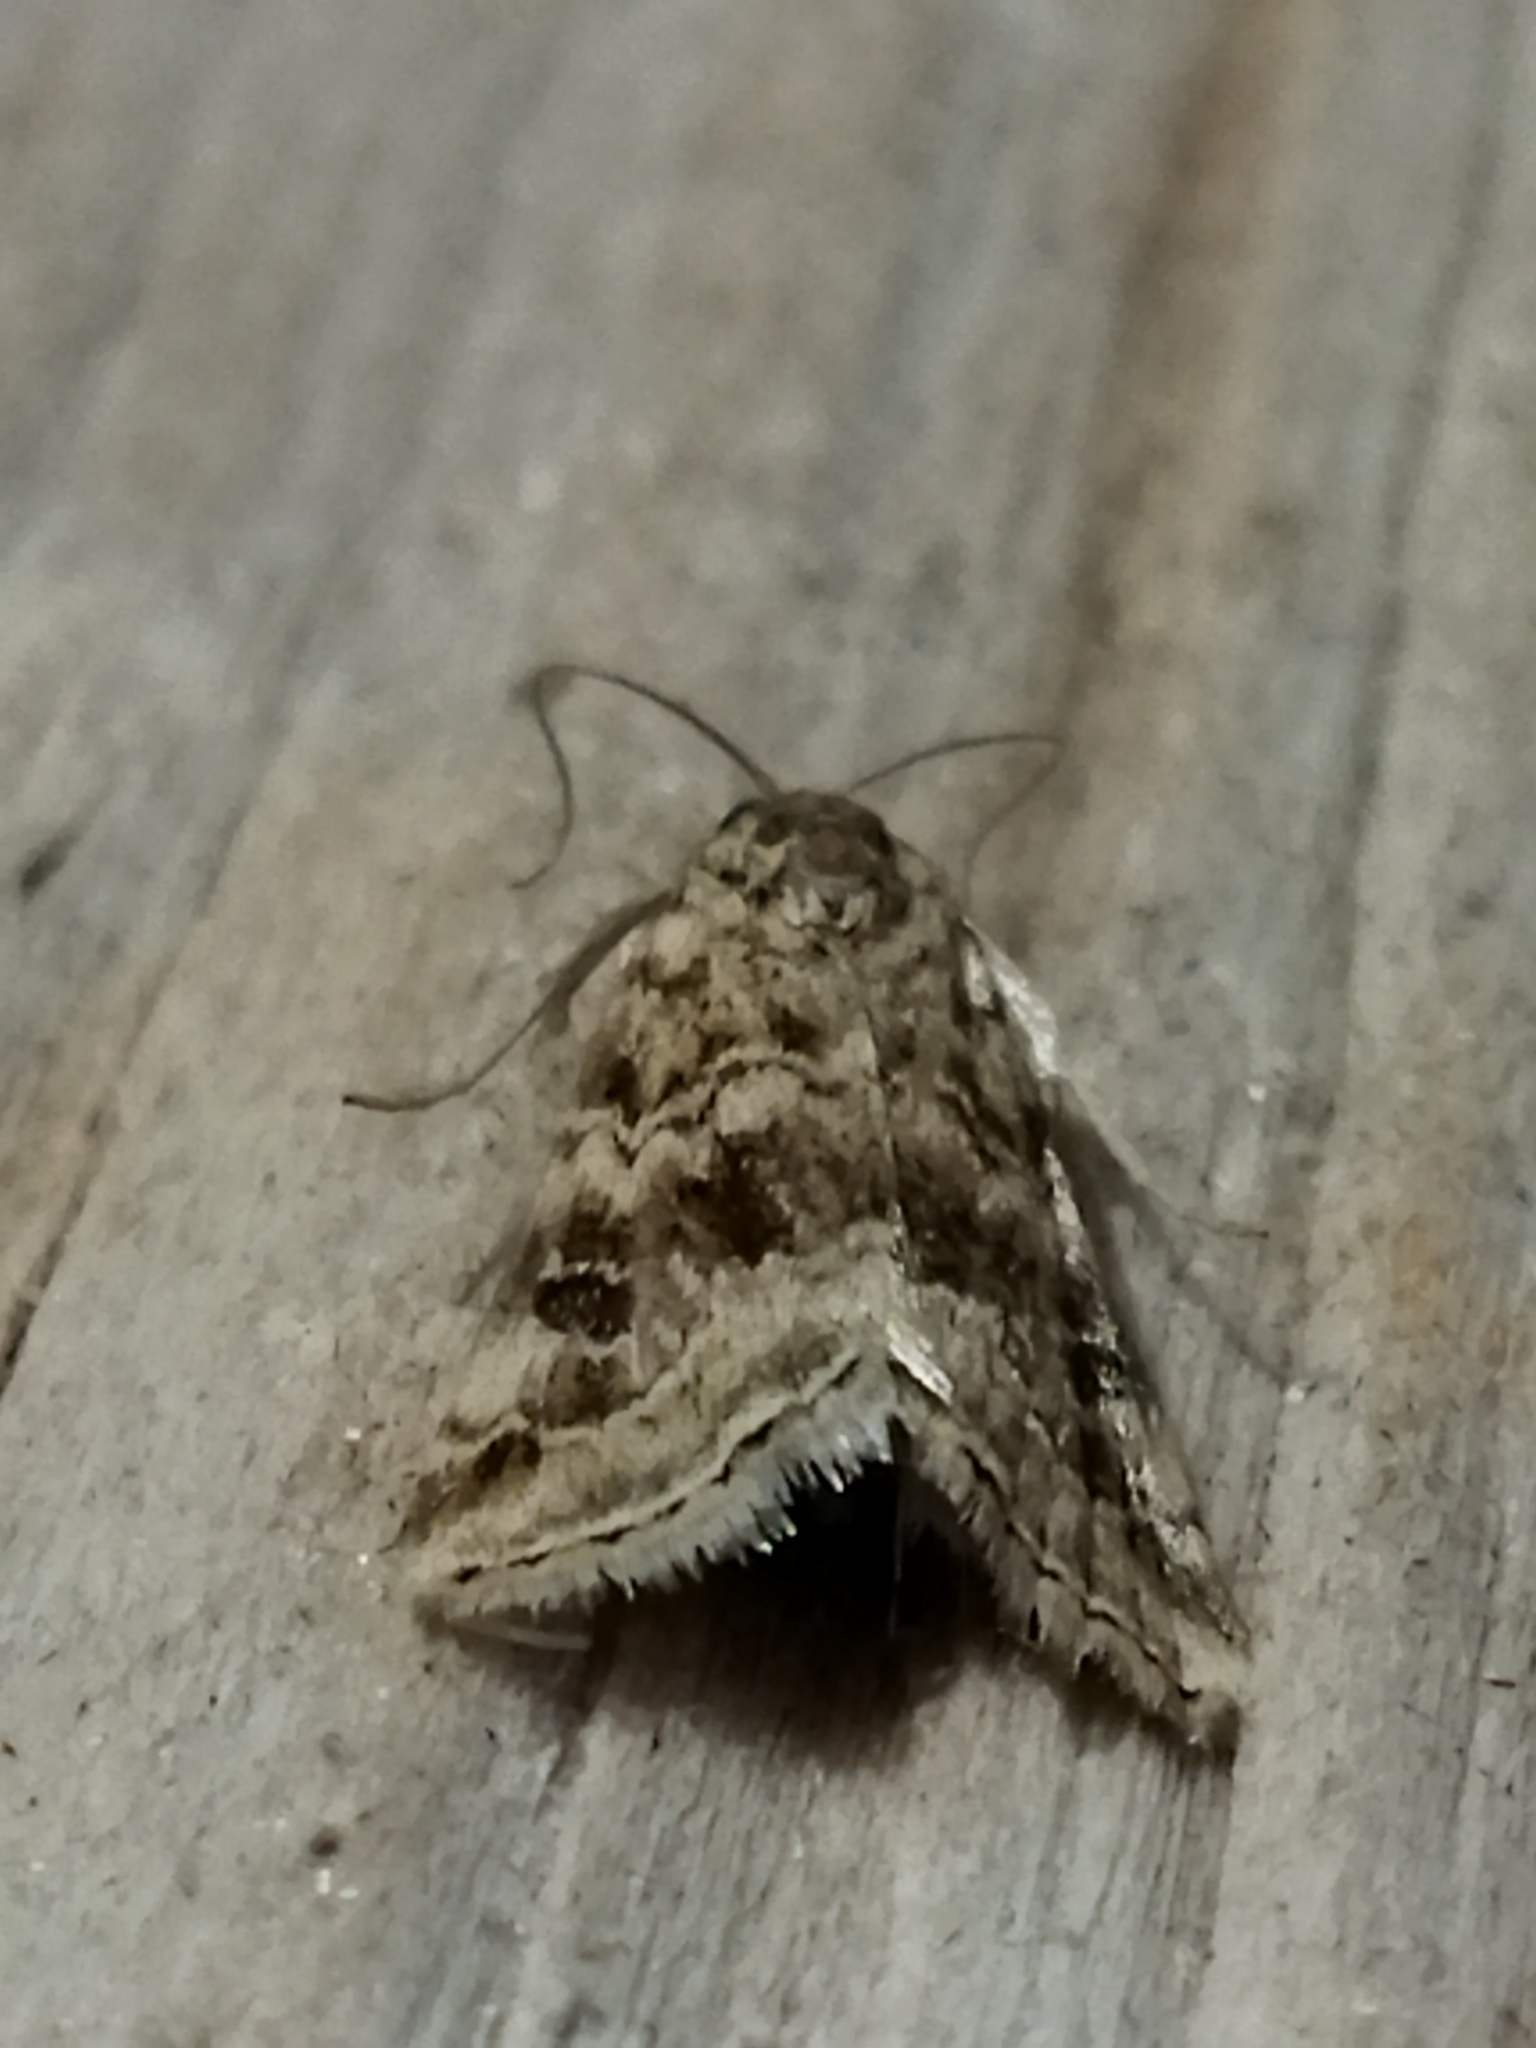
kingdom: Animalia
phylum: Arthropoda
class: Insecta
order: Lepidoptera
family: Crambidae
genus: Hellula
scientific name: Hellula undalis
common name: Cabbage webworm
